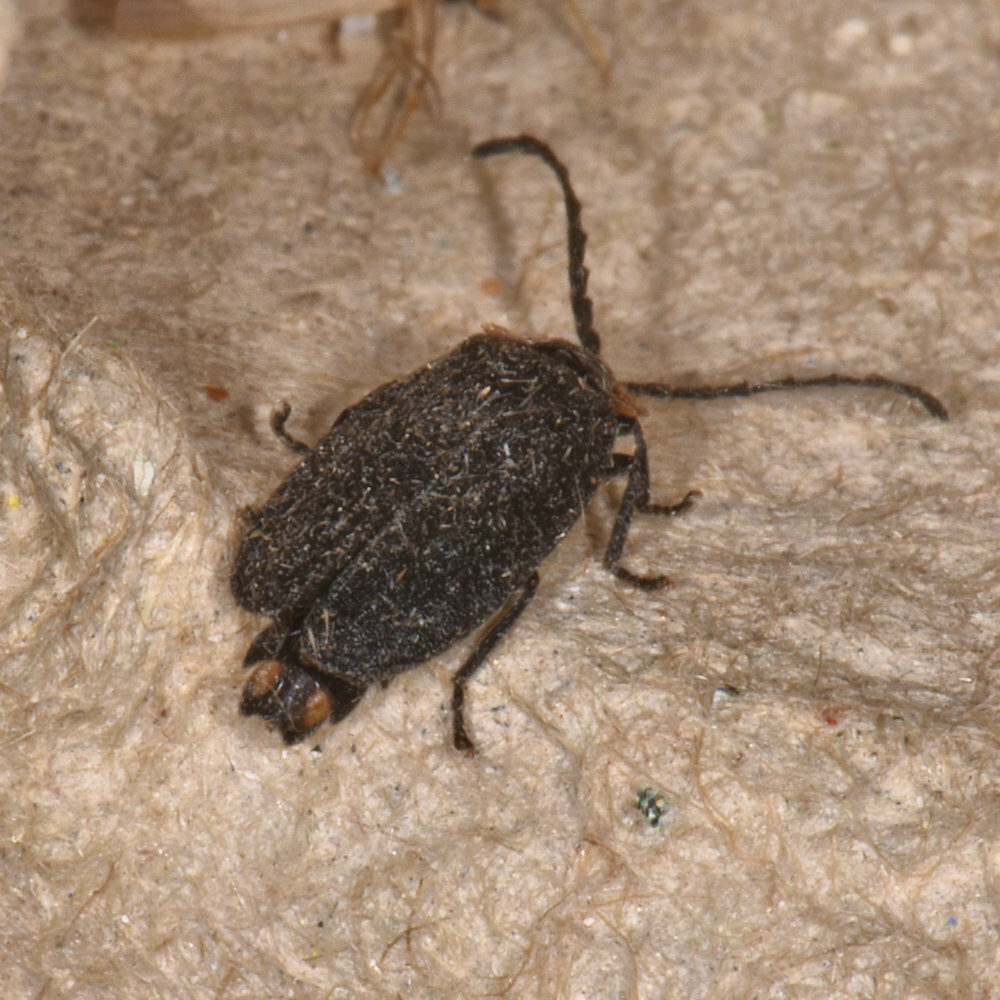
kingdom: Animalia
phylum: Arthropoda
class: Insecta
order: Coleoptera
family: Lampyridae
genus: Lucidota
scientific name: Lucidota atra
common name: Black firefly
